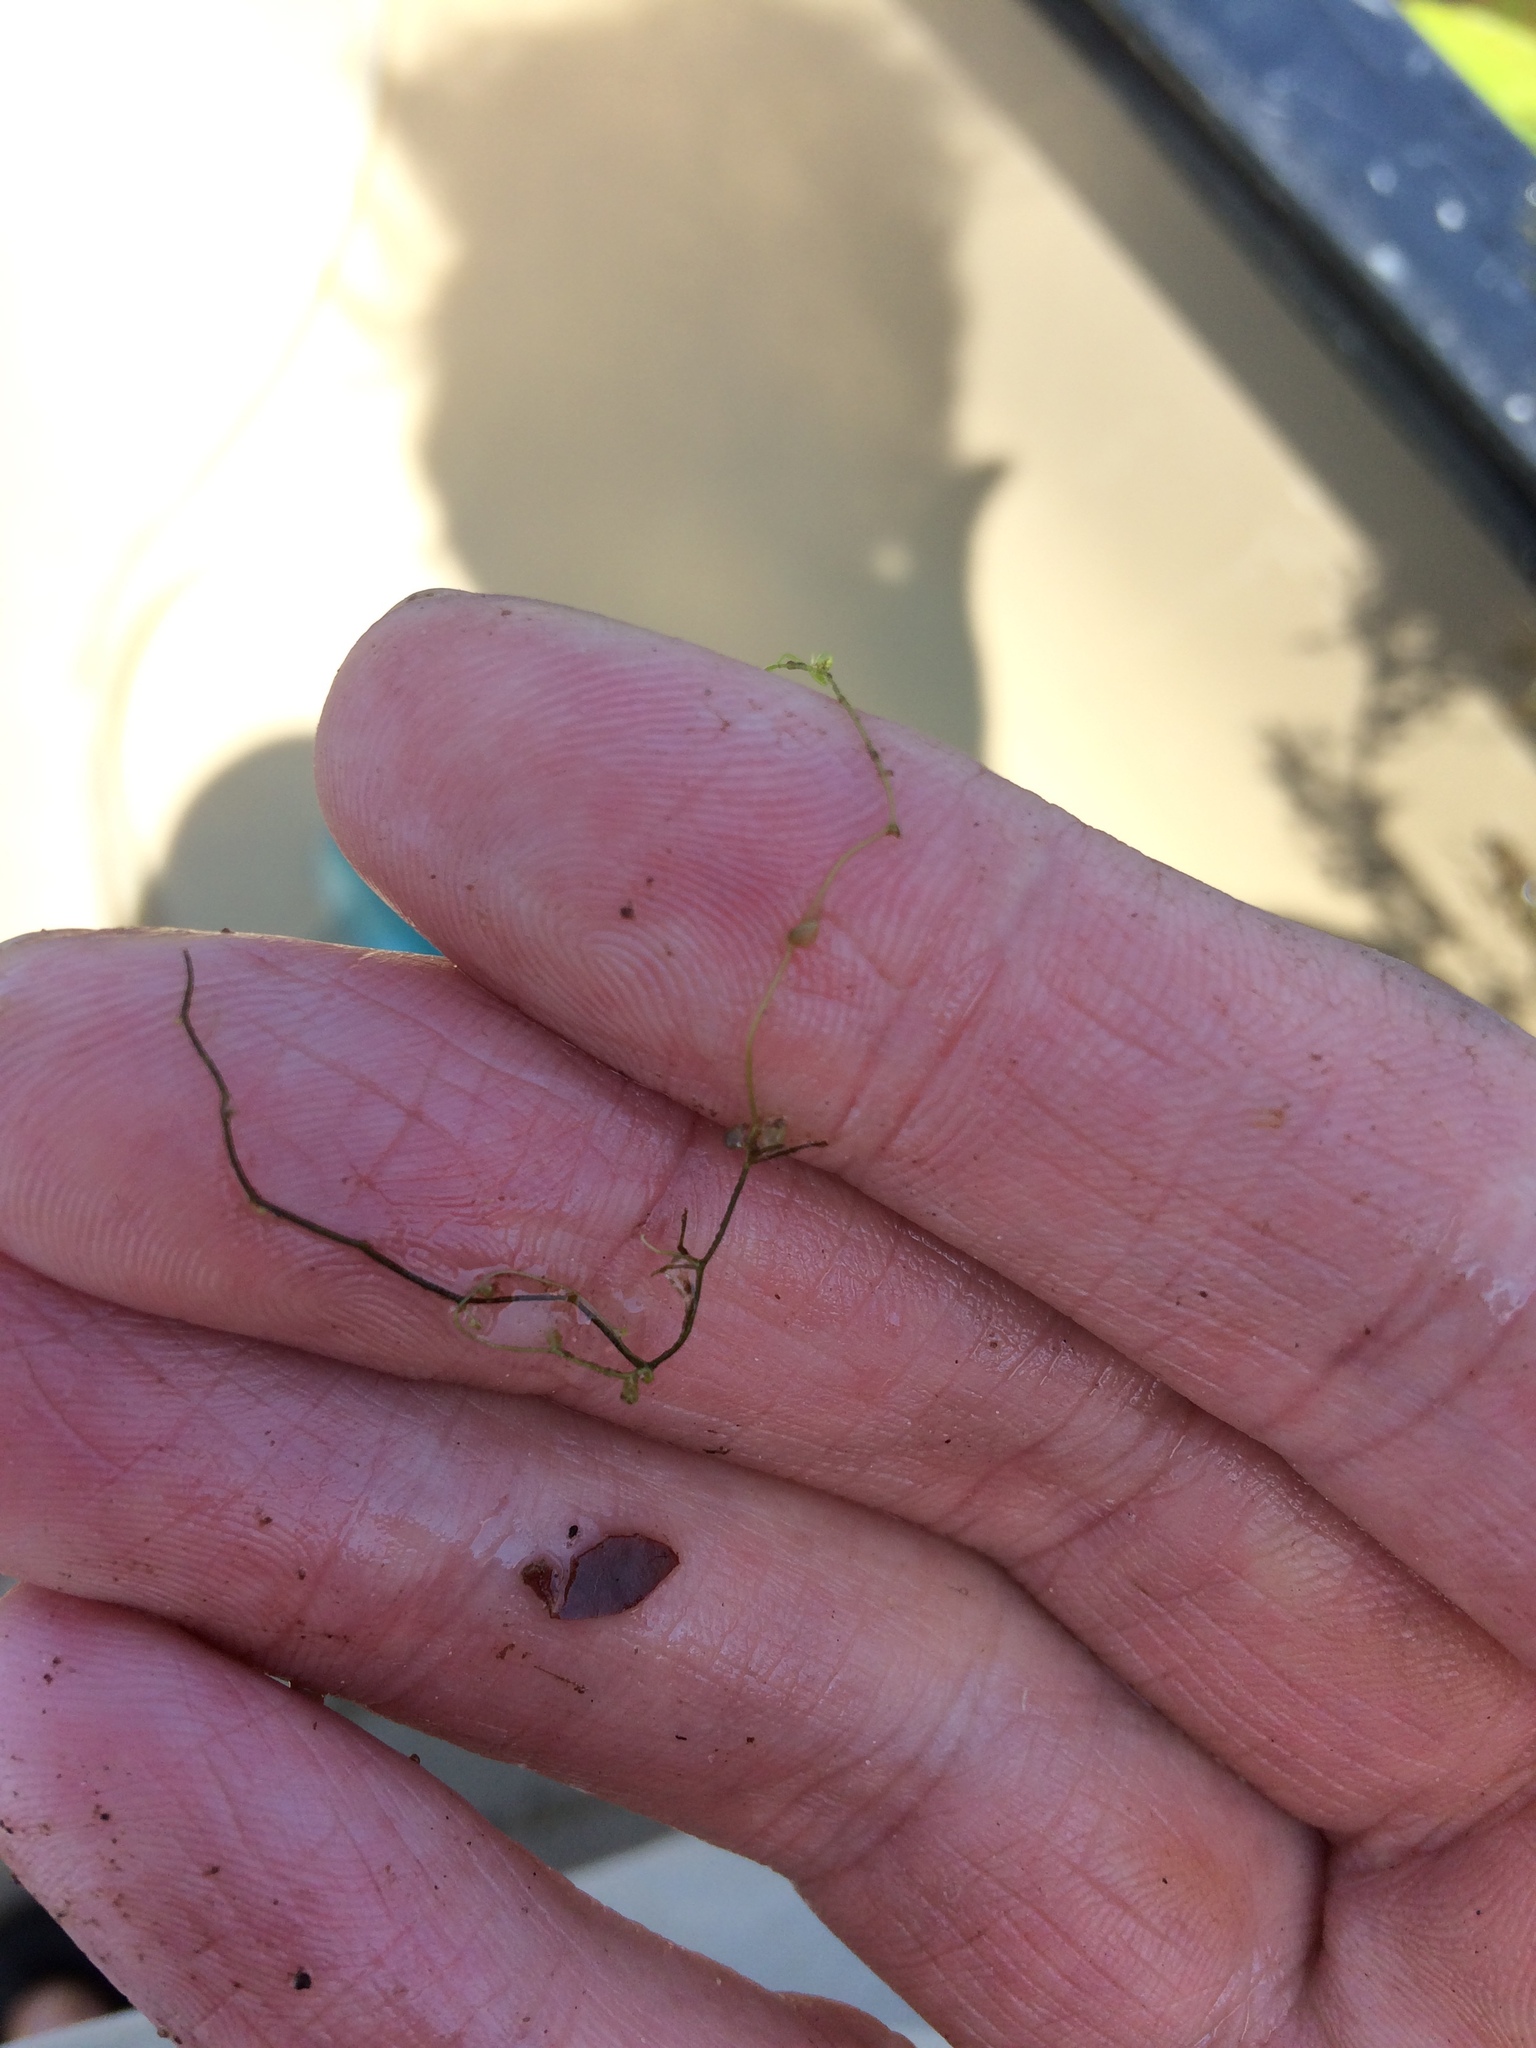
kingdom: Plantae
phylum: Tracheophyta
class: Magnoliopsida
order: Lamiales
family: Lentibulariaceae
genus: Utricularia
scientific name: Utricularia minor
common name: Lesser bladderwort
